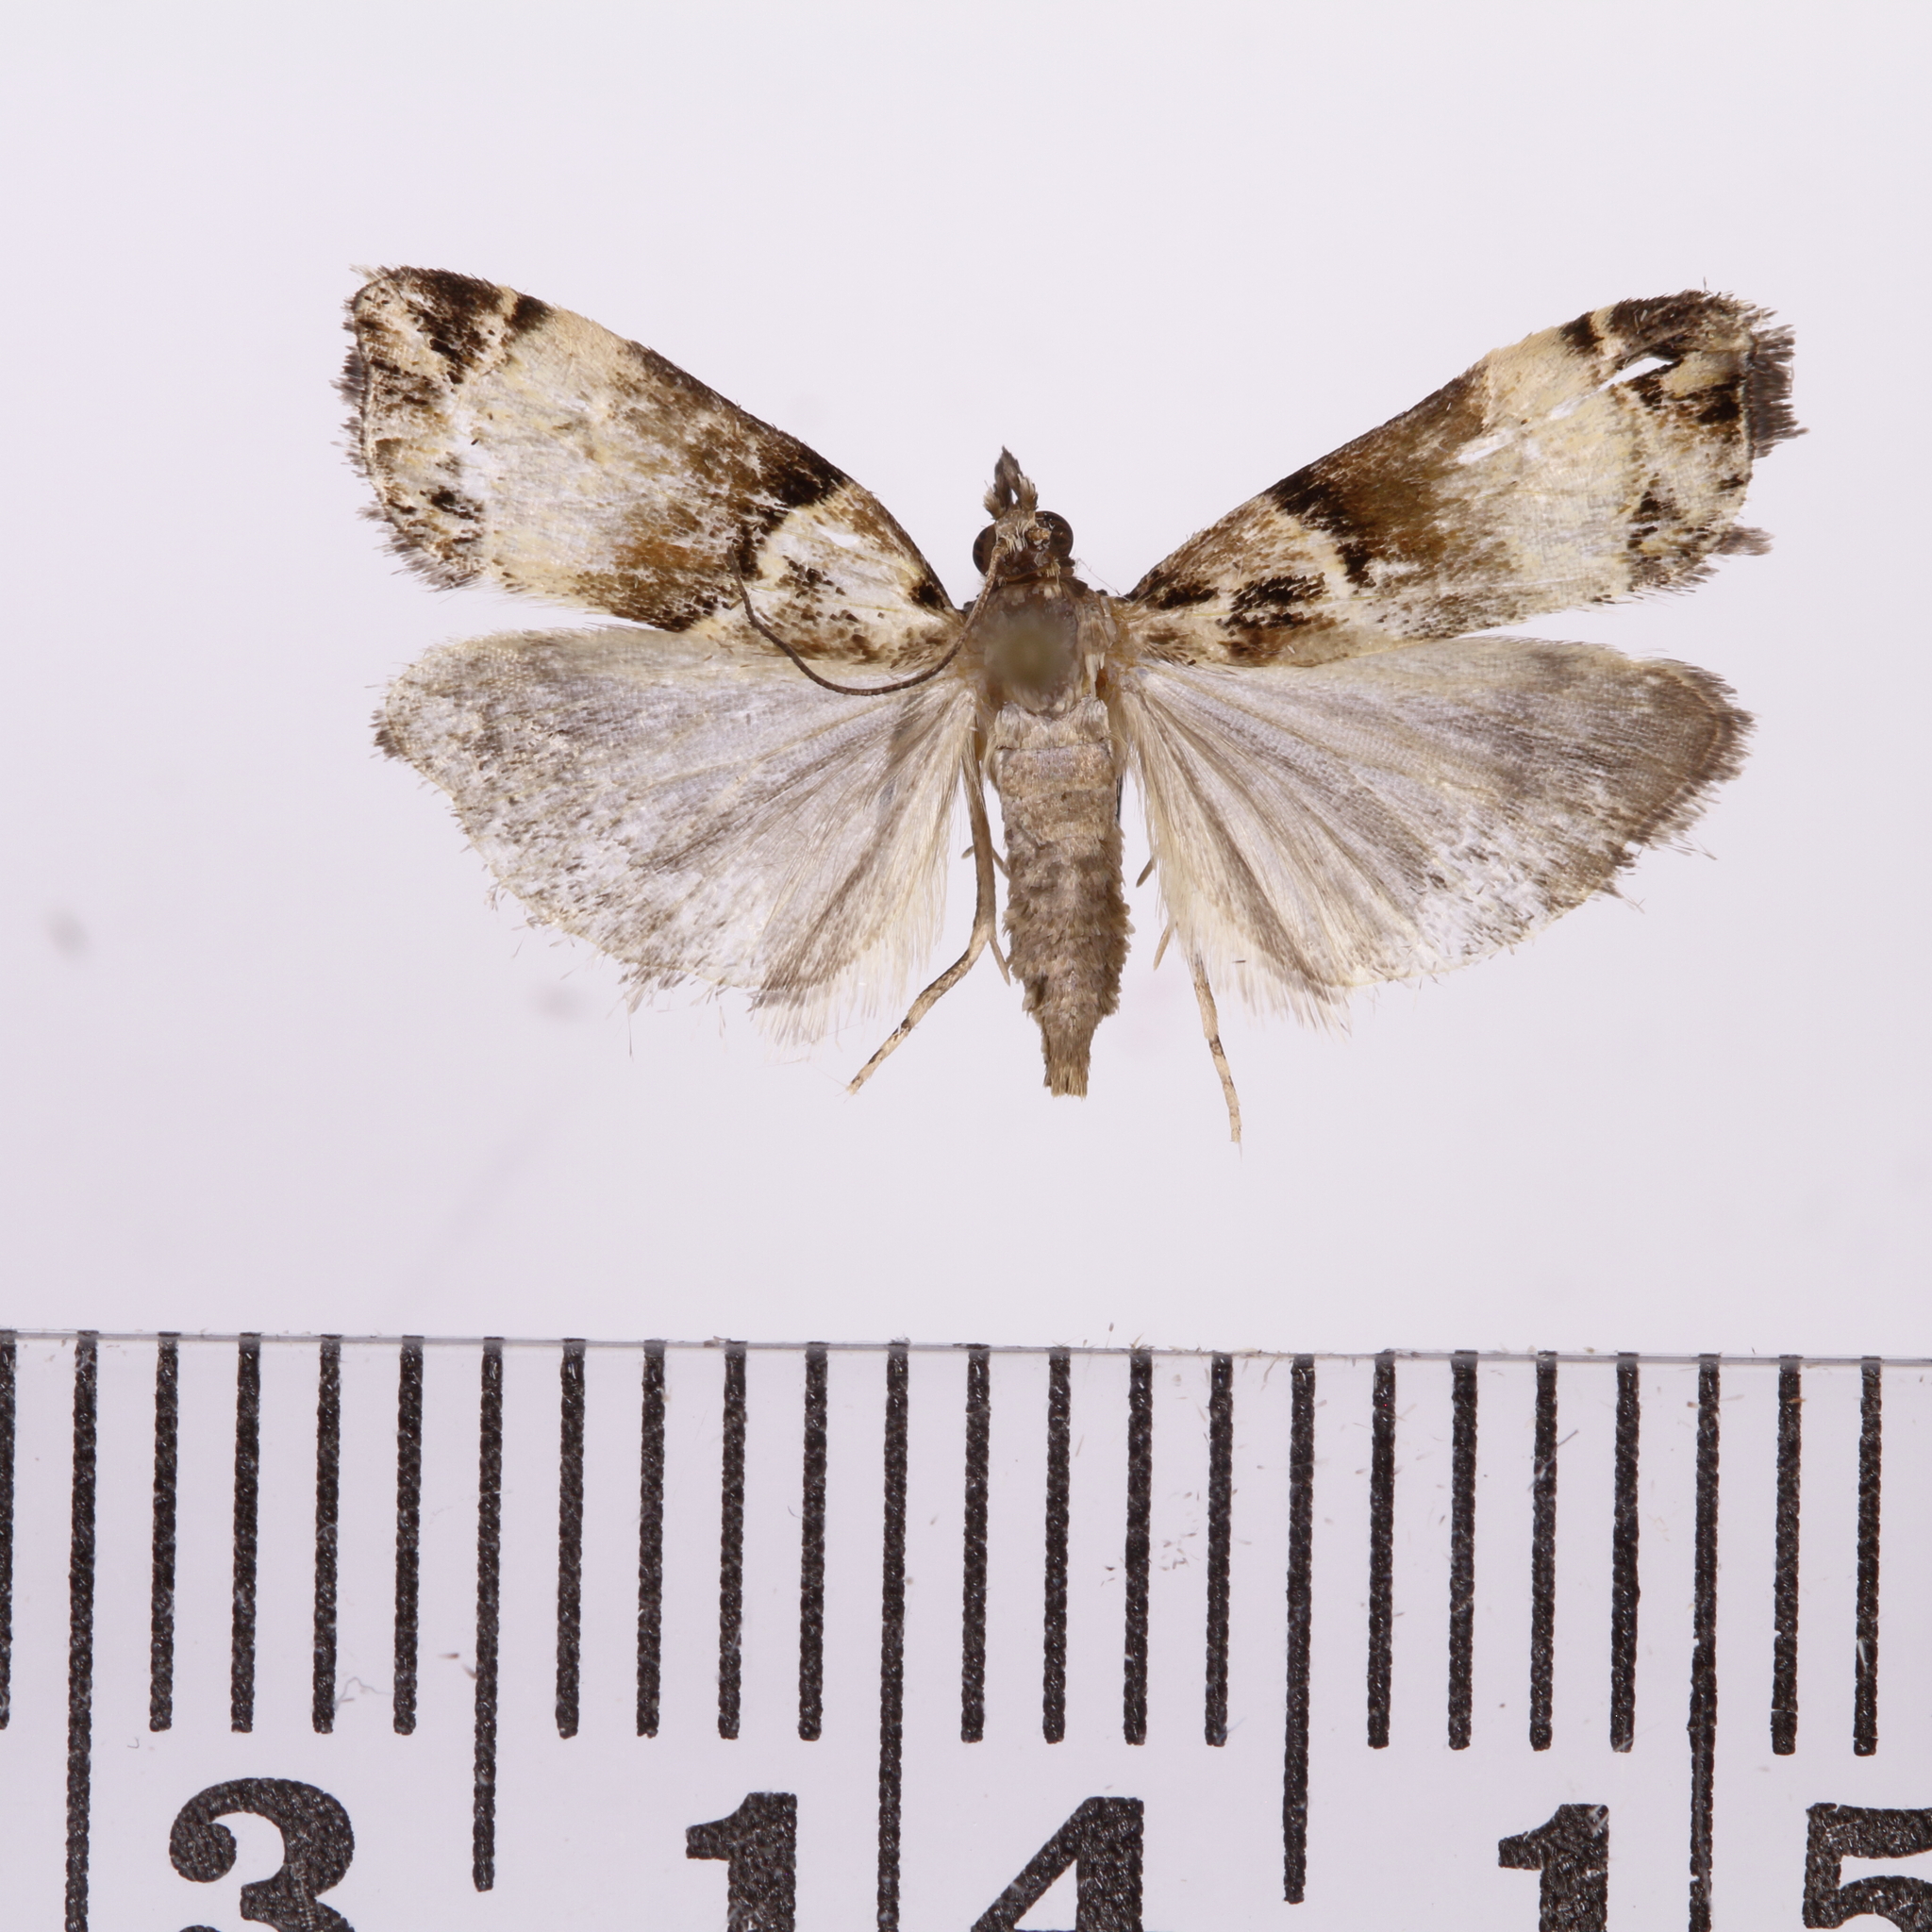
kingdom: Animalia
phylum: Arthropoda
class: Insecta
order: Lepidoptera
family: Crambidae
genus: Eudonia
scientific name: Eudonia periphanes
